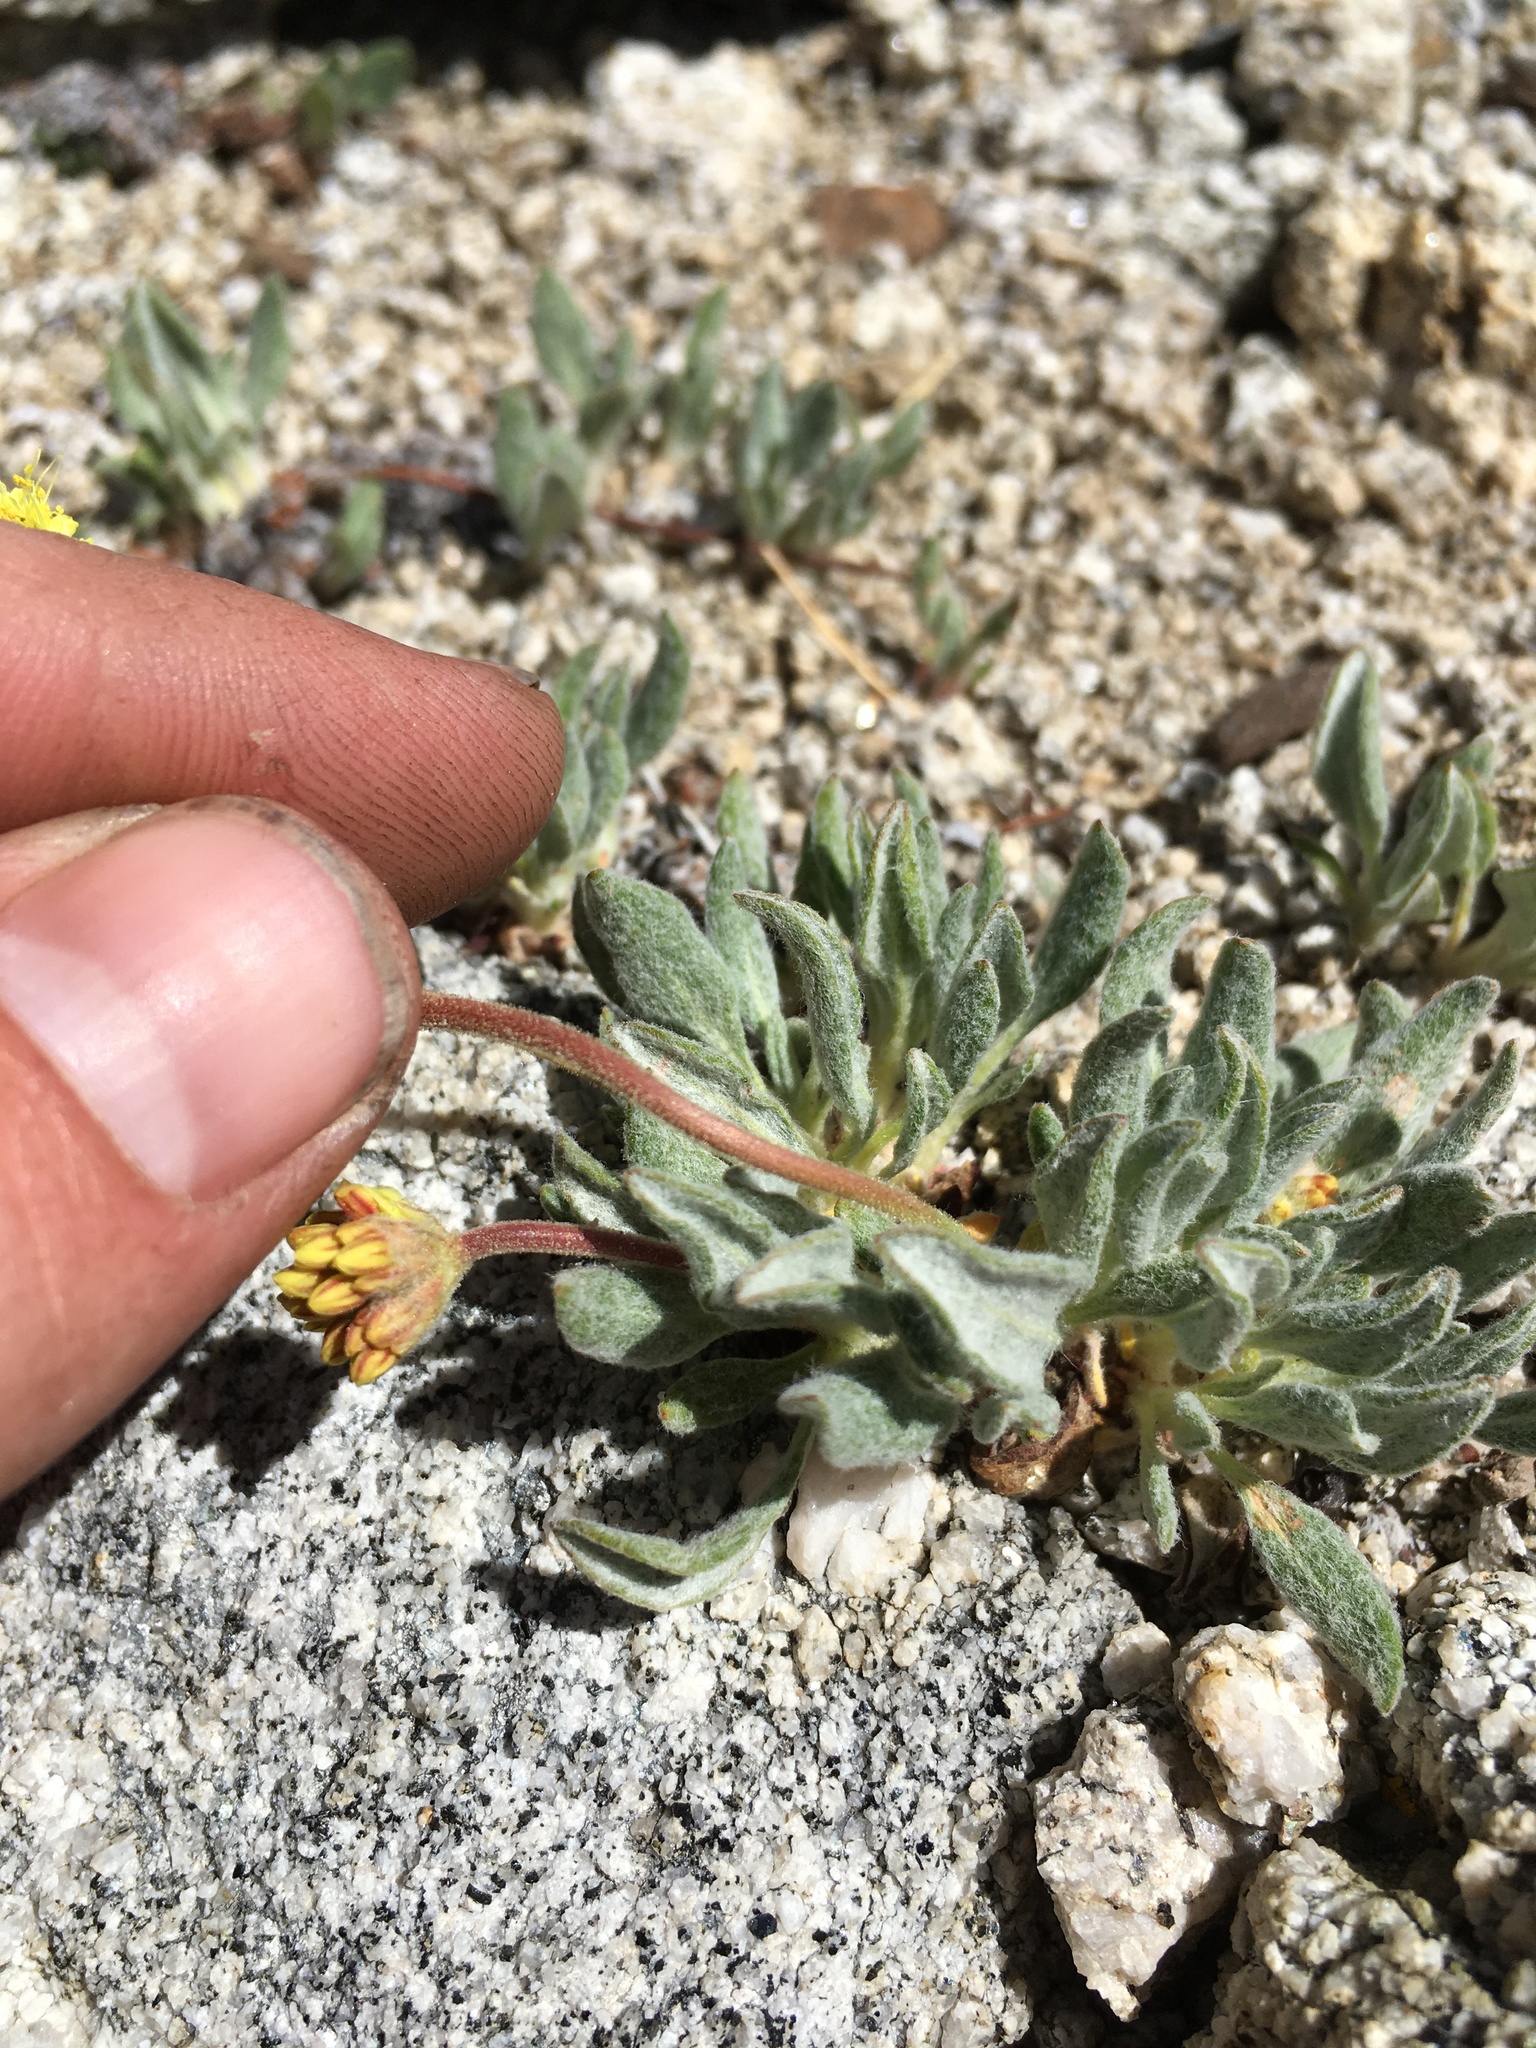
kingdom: Plantae
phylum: Tracheophyta
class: Magnoliopsida
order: Caryophyllales
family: Polygonaceae
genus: Eriogonum
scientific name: Eriogonum rosense
